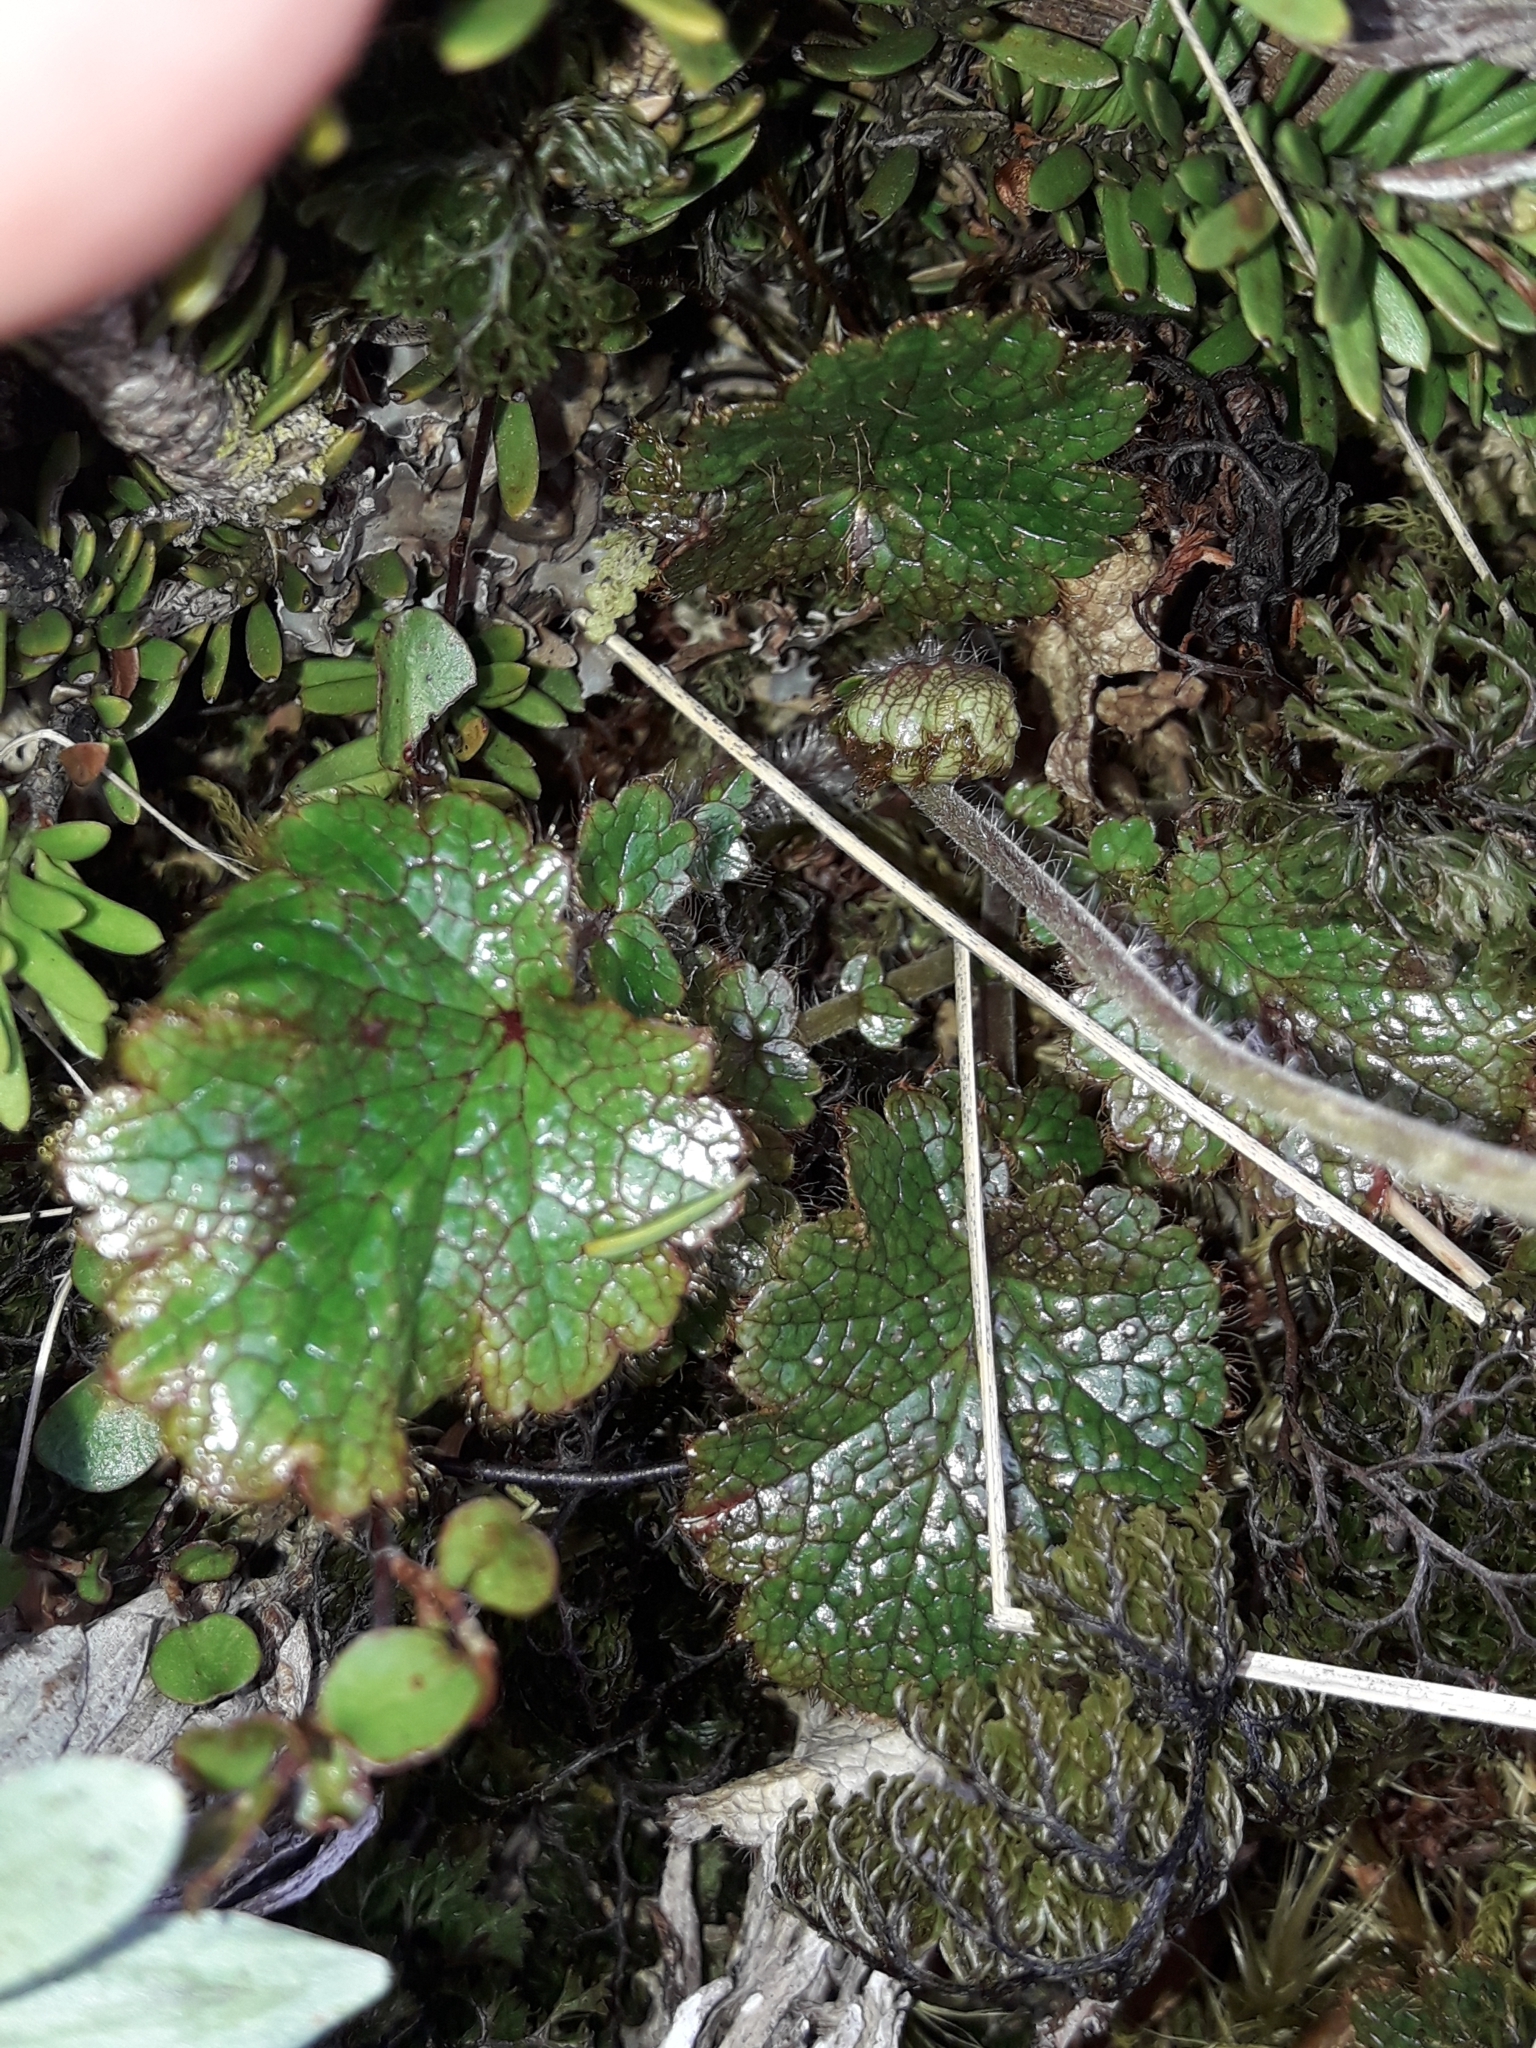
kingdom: Plantae
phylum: Tracheophyta
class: Magnoliopsida
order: Rosales
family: Rosaceae
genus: Geum
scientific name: Geum uniflorum
